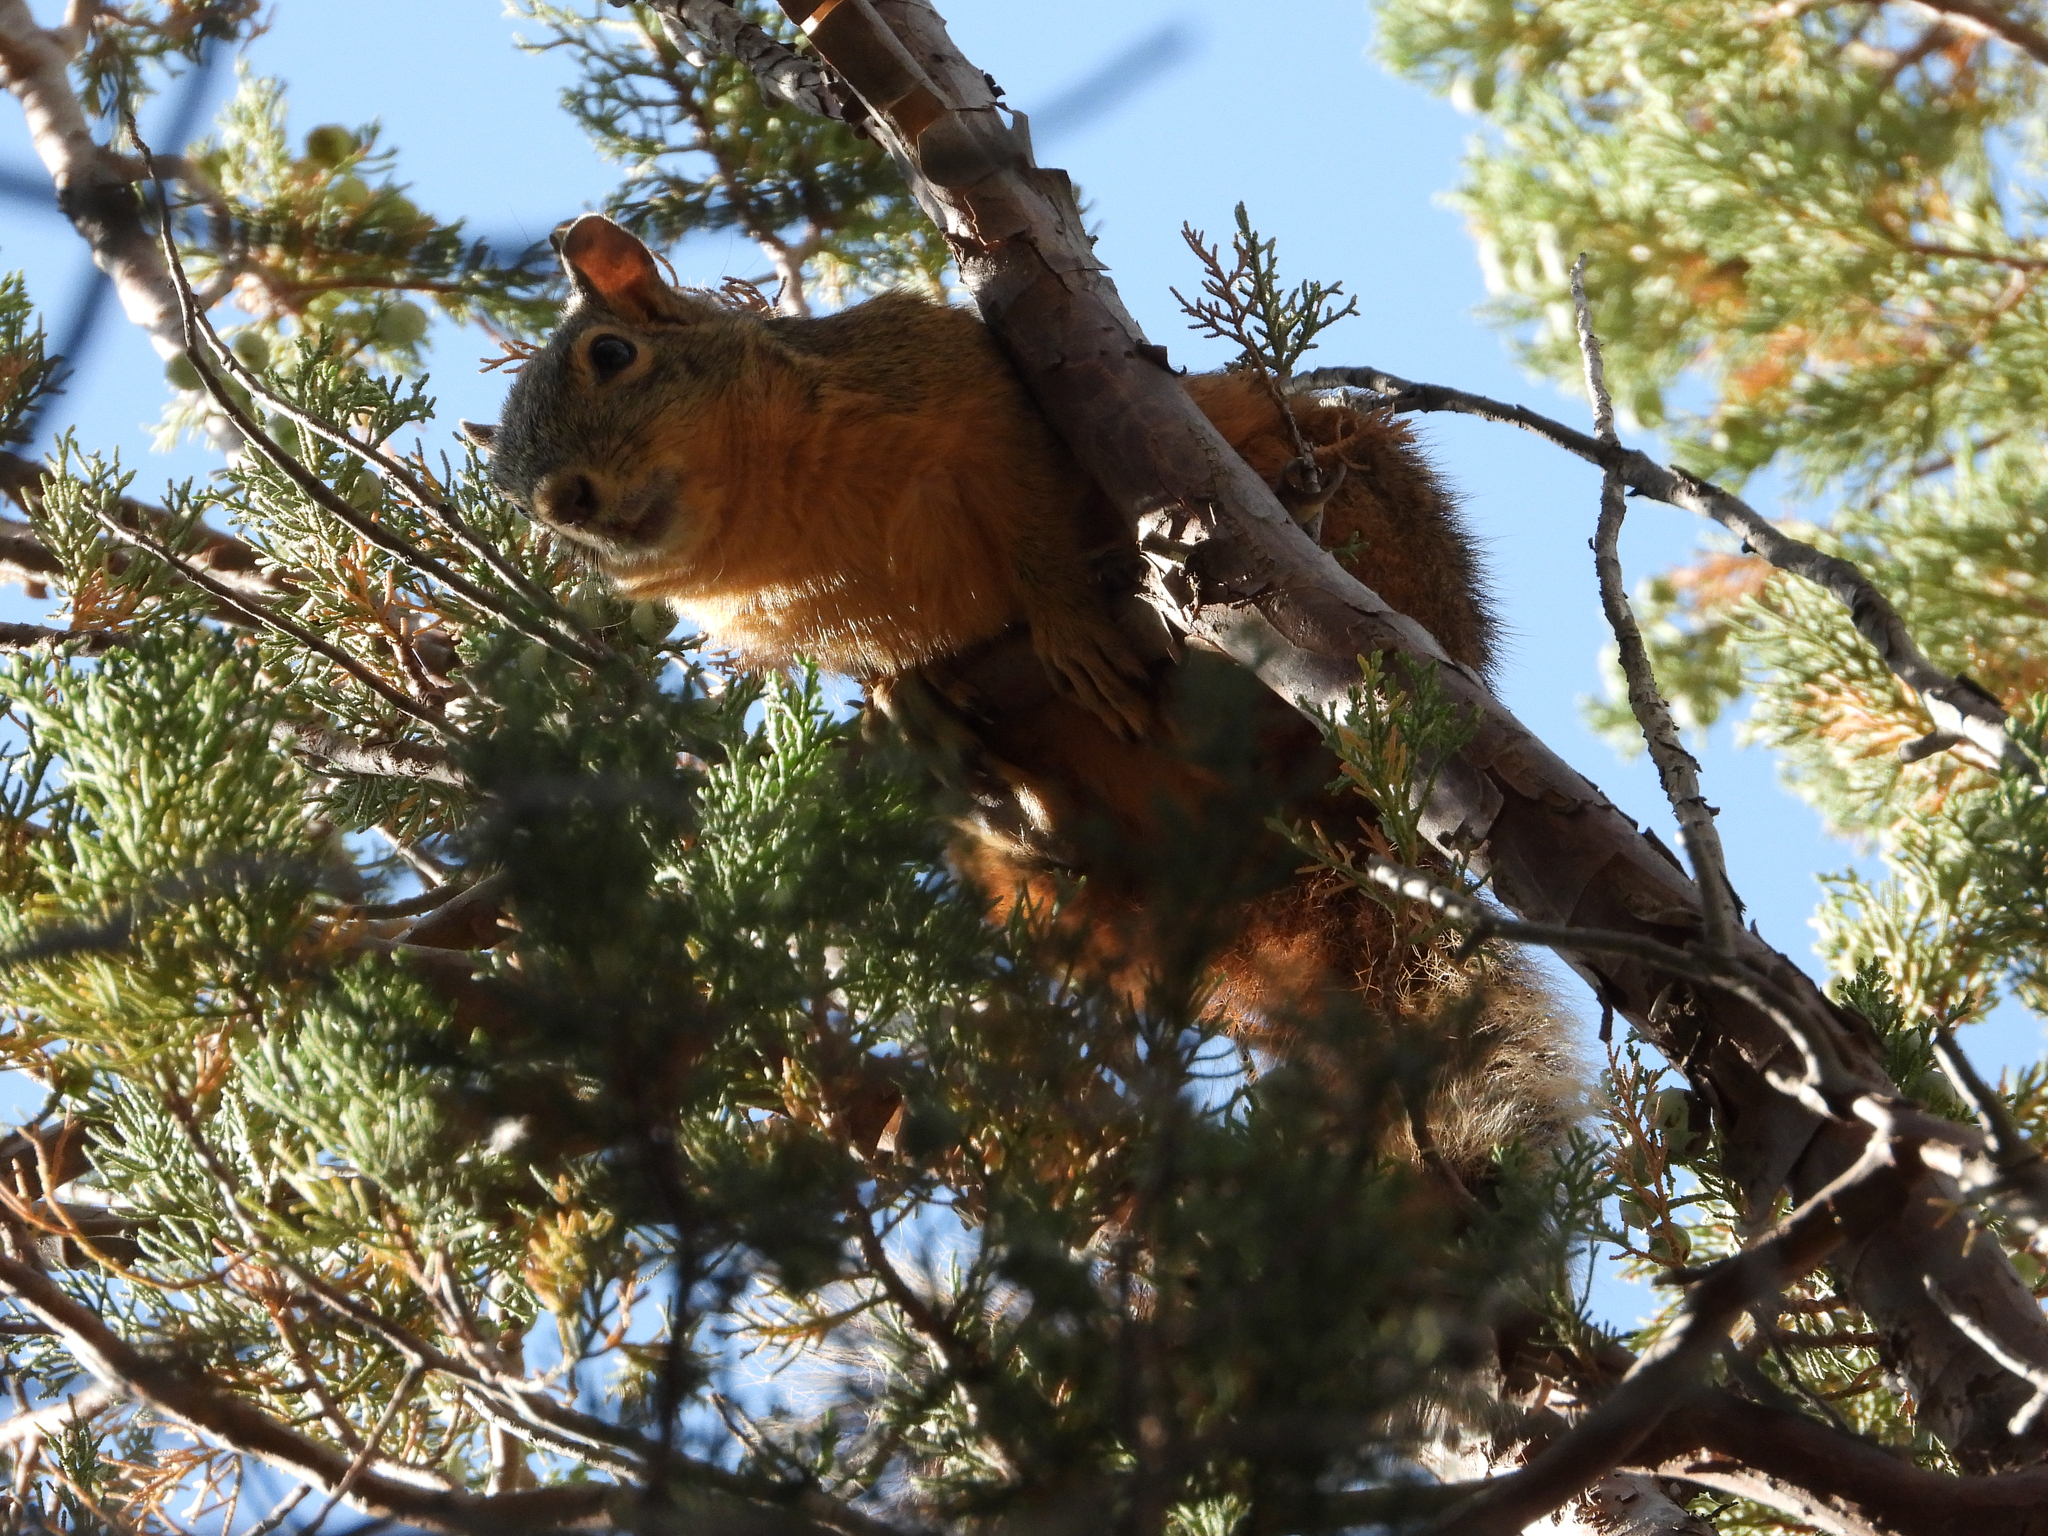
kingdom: Animalia
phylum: Chordata
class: Mammalia
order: Rodentia
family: Sciuridae
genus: Sciurus
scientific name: Sciurus nayaritensis
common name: Mexican fox squirrel
